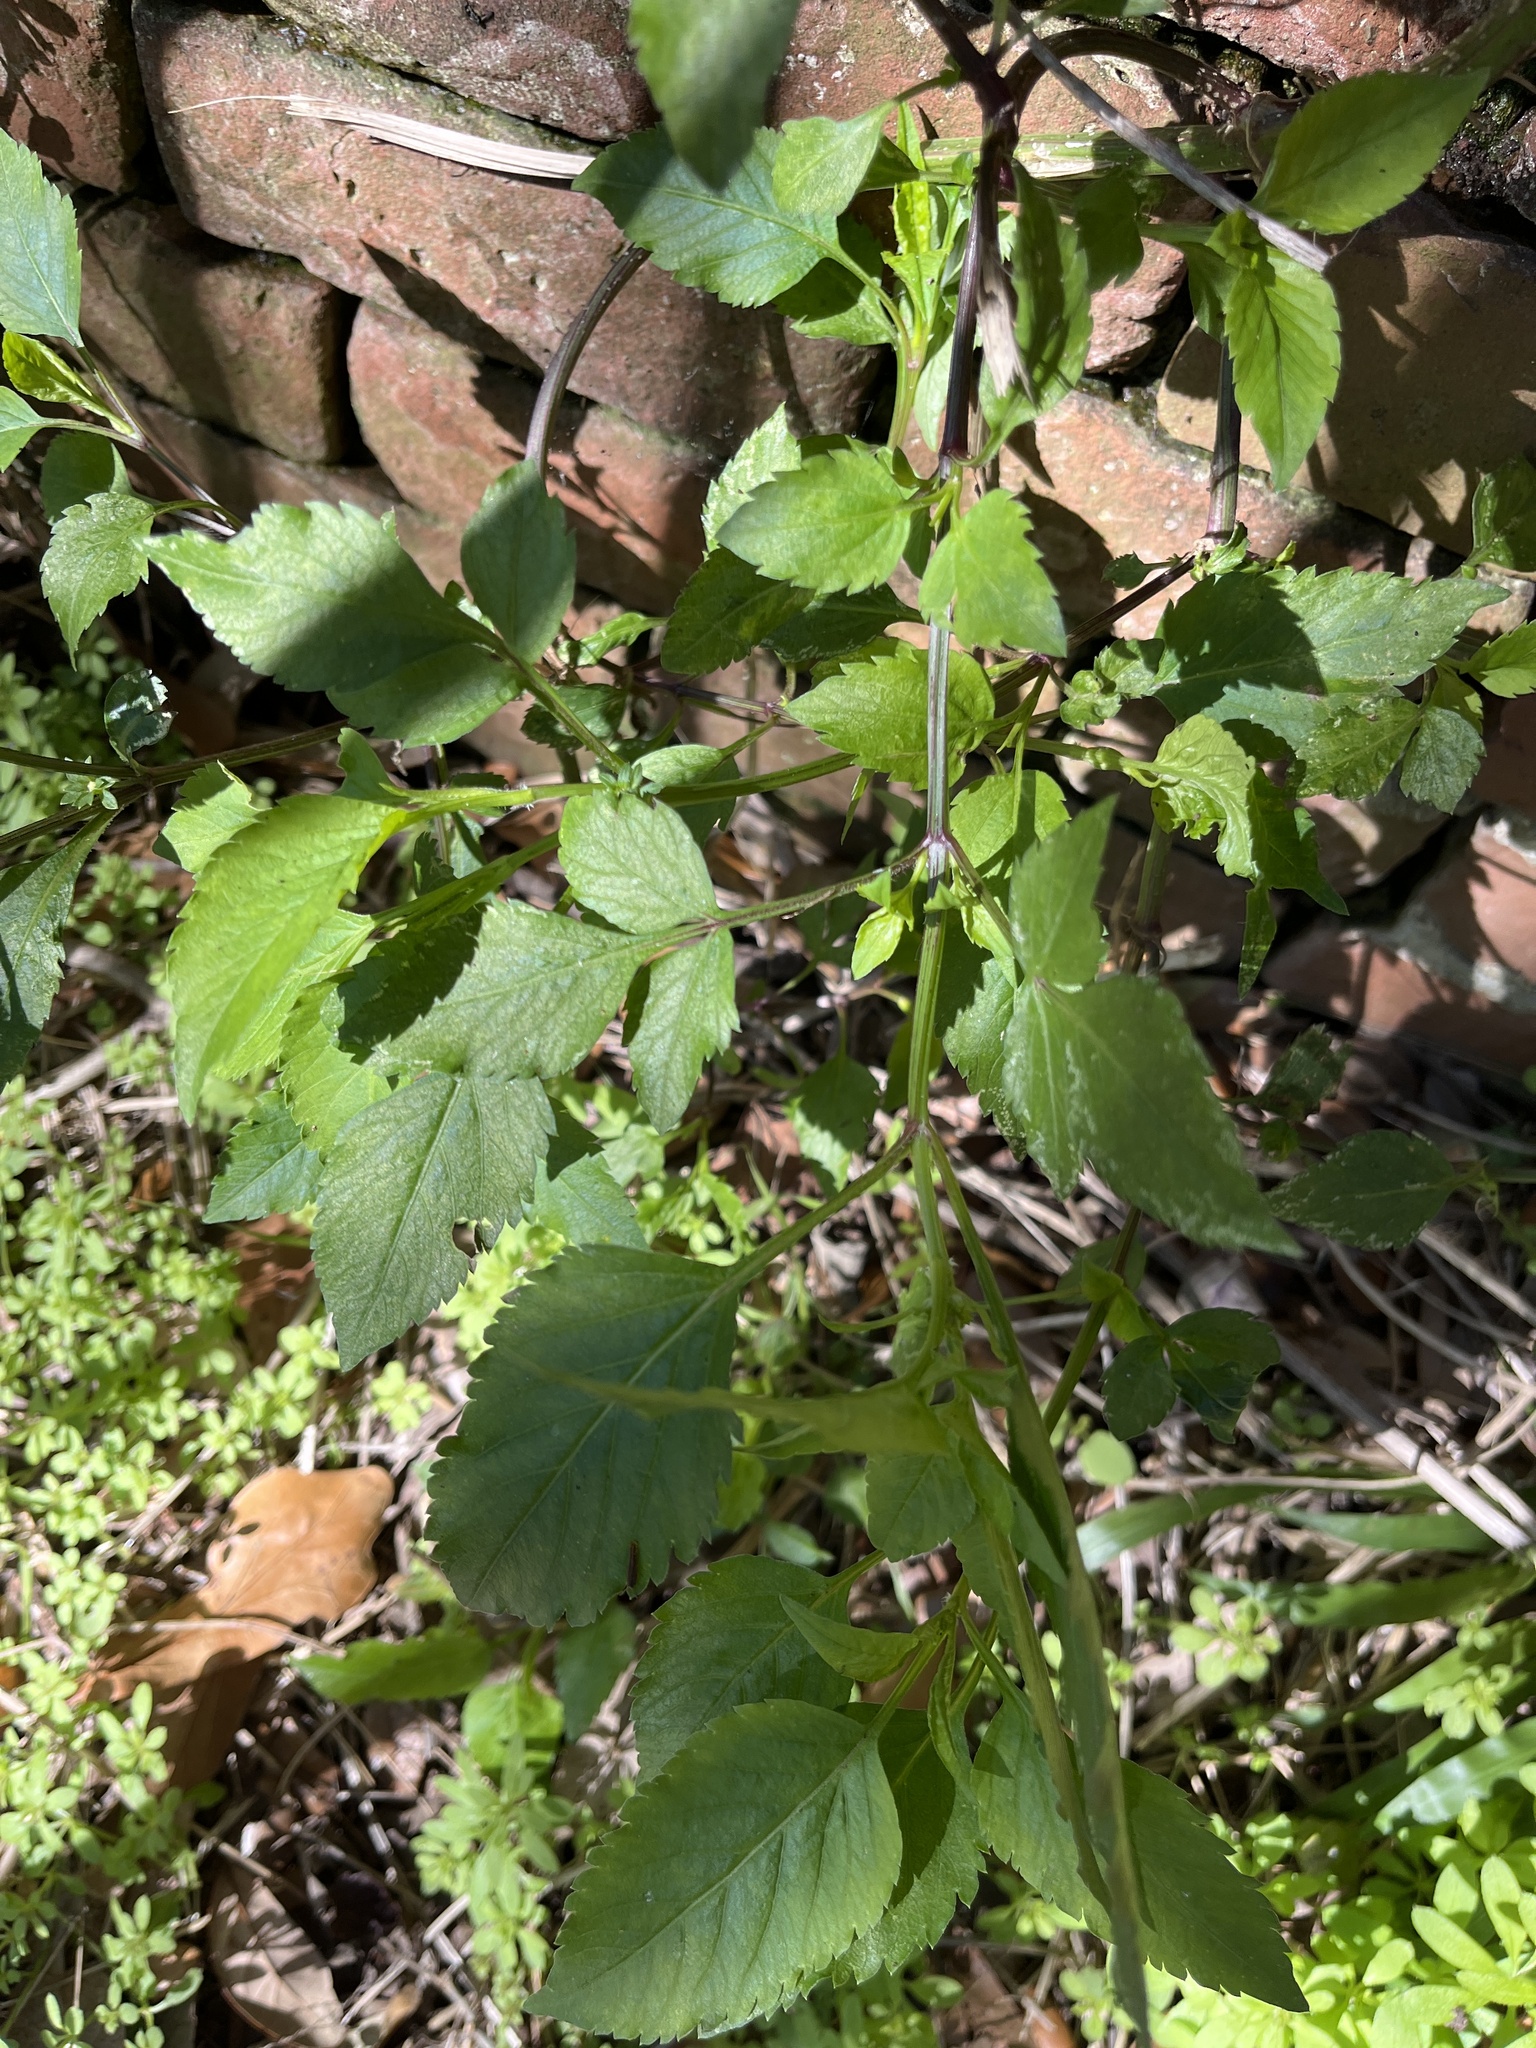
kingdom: Plantae
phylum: Tracheophyta
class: Magnoliopsida
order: Asterales
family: Asteraceae
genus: Bidens
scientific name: Bidens alba
